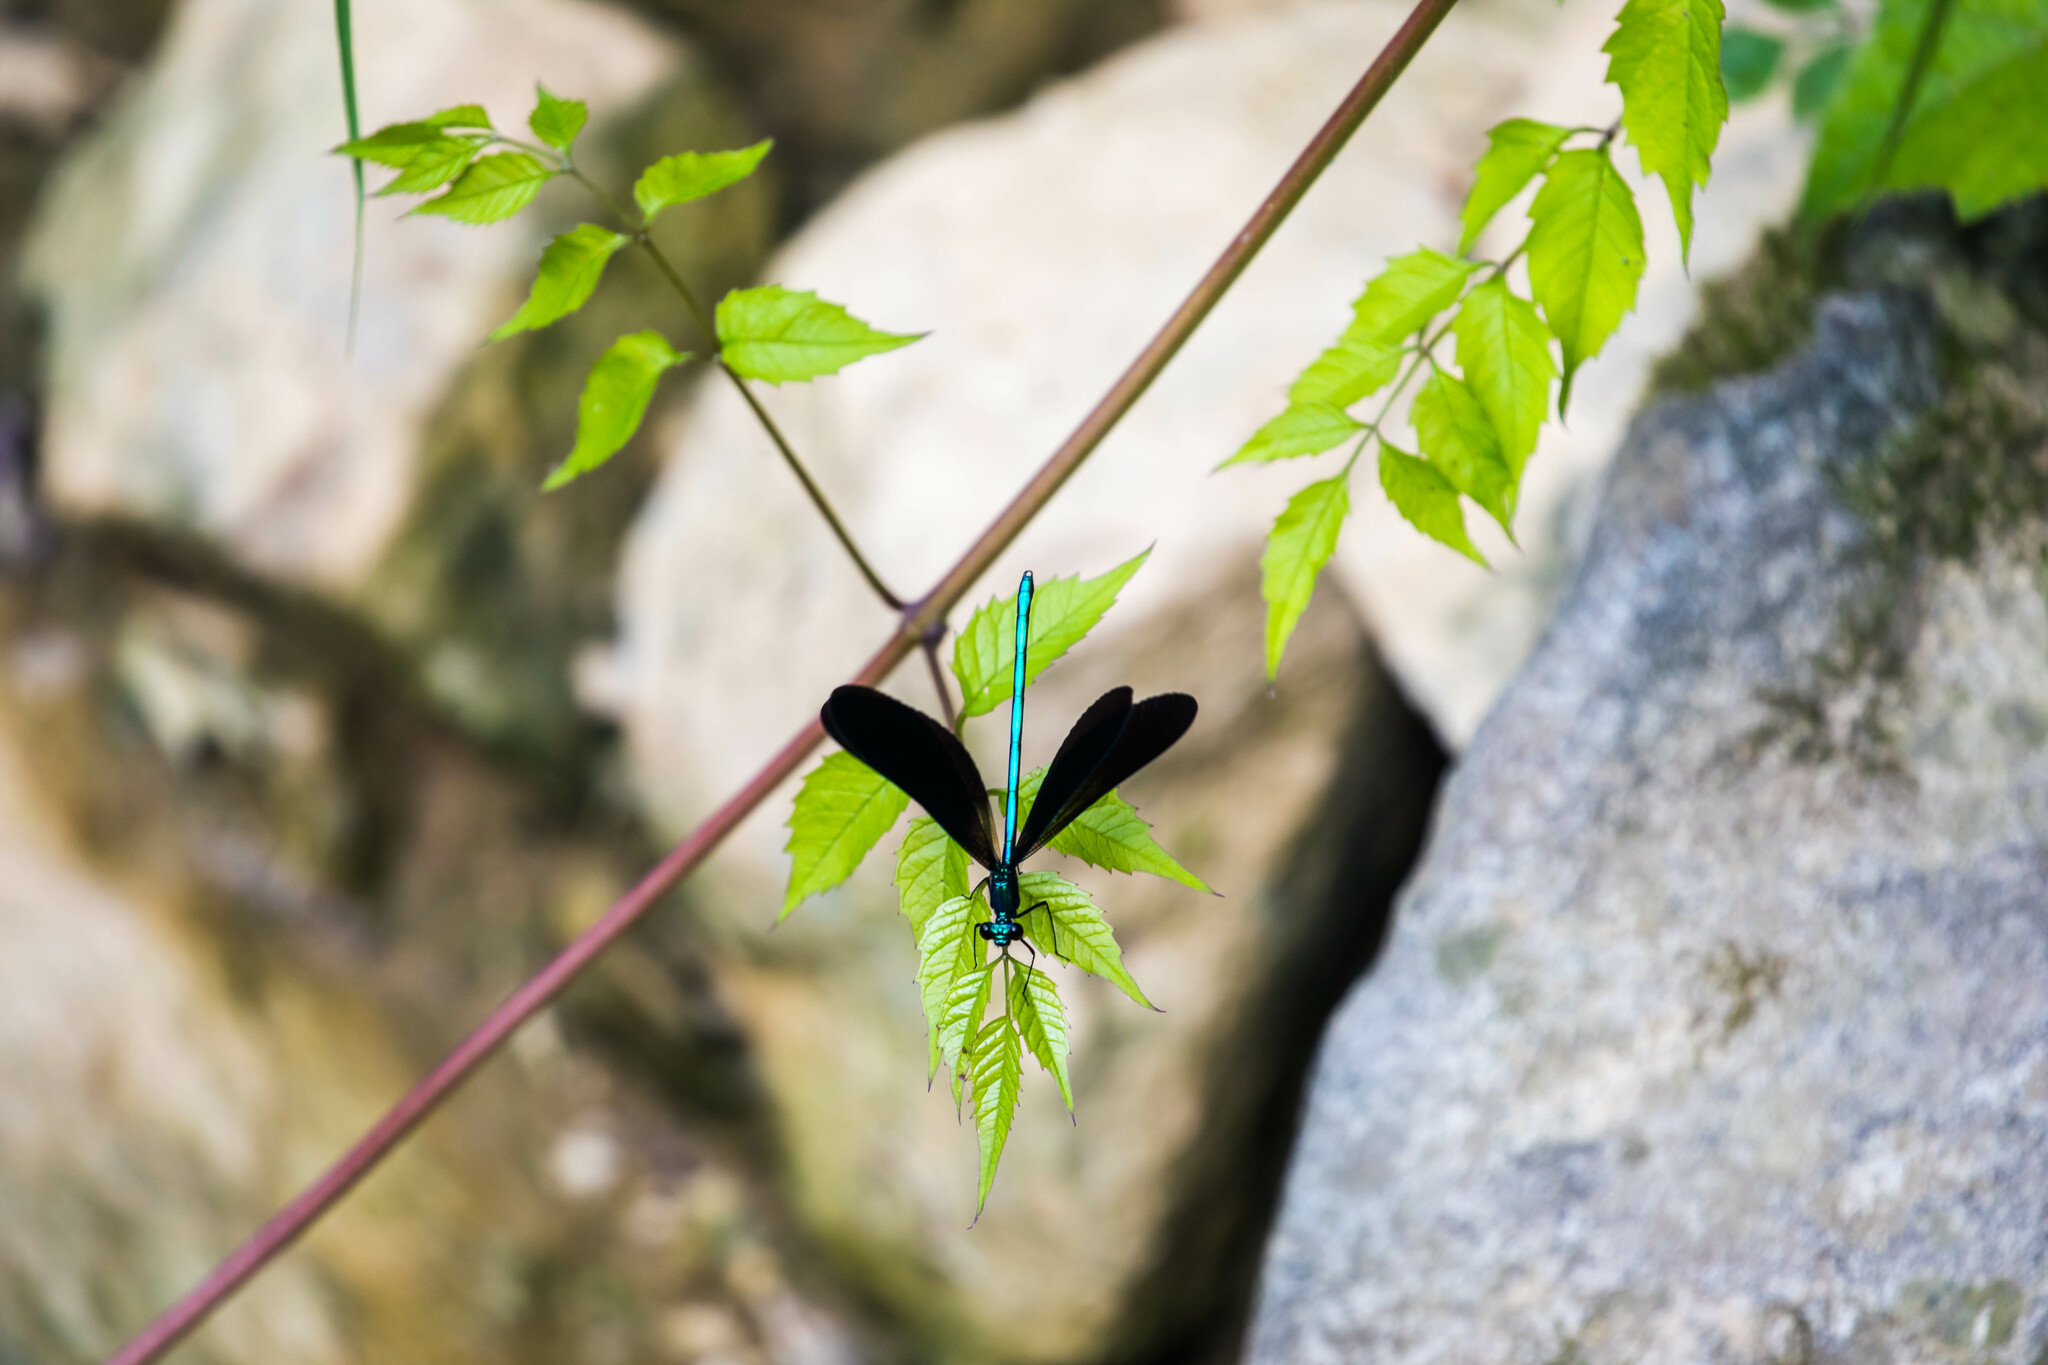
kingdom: Animalia
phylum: Arthropoda
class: Insecta
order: Odonata
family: Calopterygidae
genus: Calopteryx
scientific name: Calopteryx maculata
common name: Ebony jewelwing
